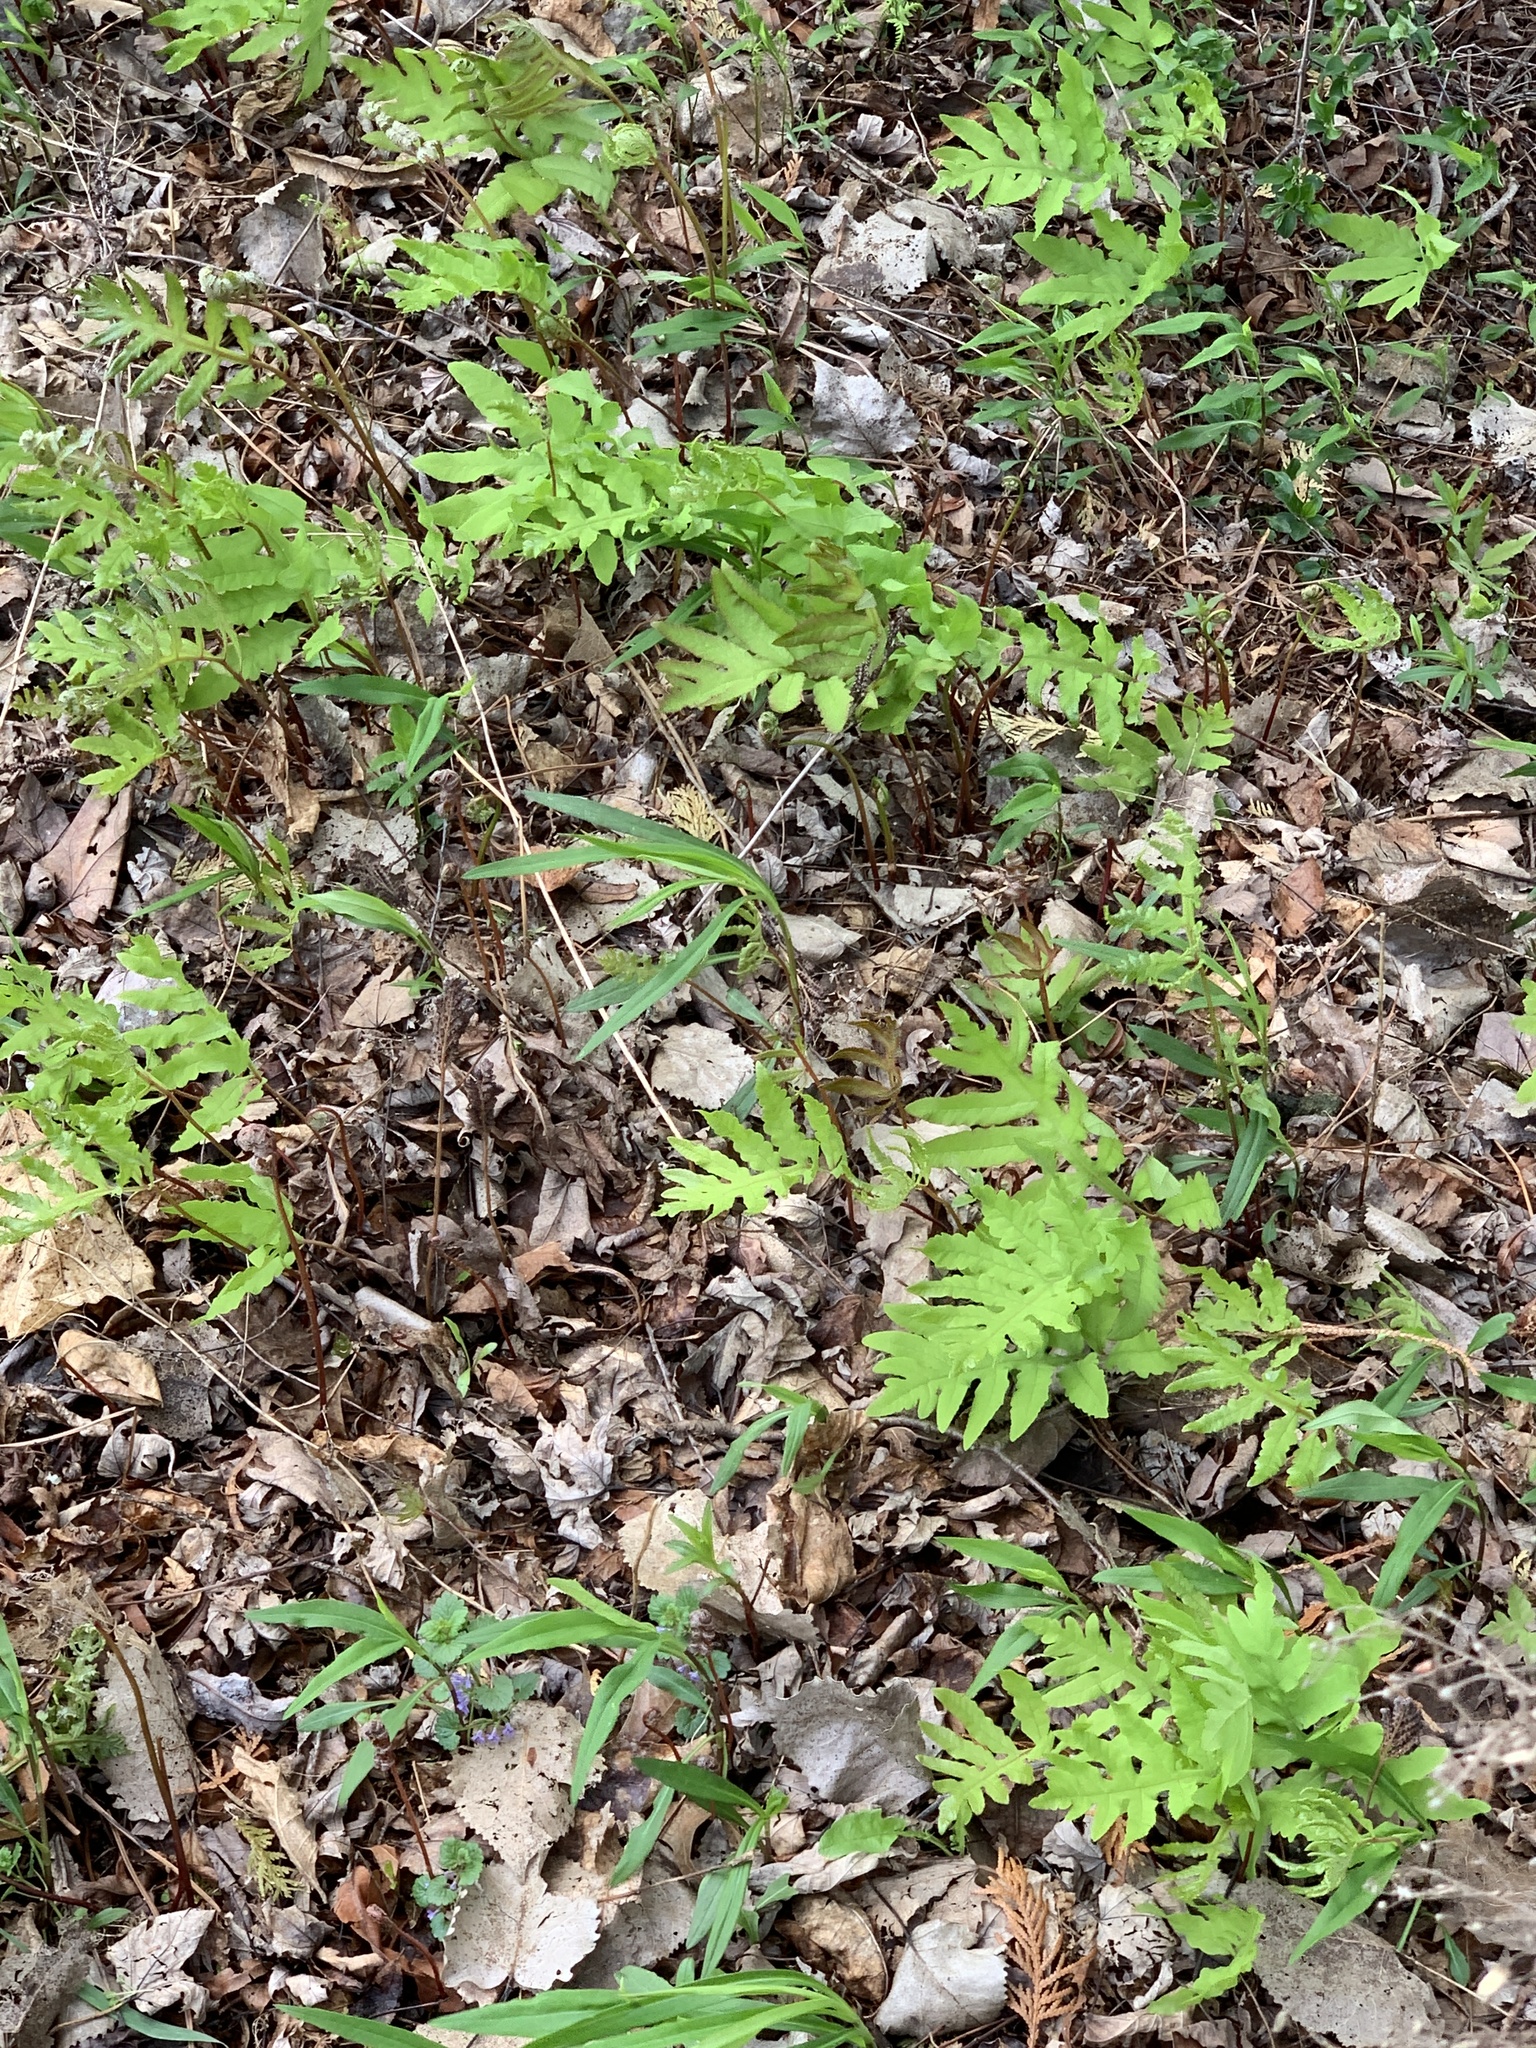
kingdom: Plantae
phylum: Tracheophyta
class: Polypodiopsida
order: Polypodiales
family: Onocleaceae
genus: Onoclea
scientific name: Onoclea sensibilis
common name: Sensitive fern
